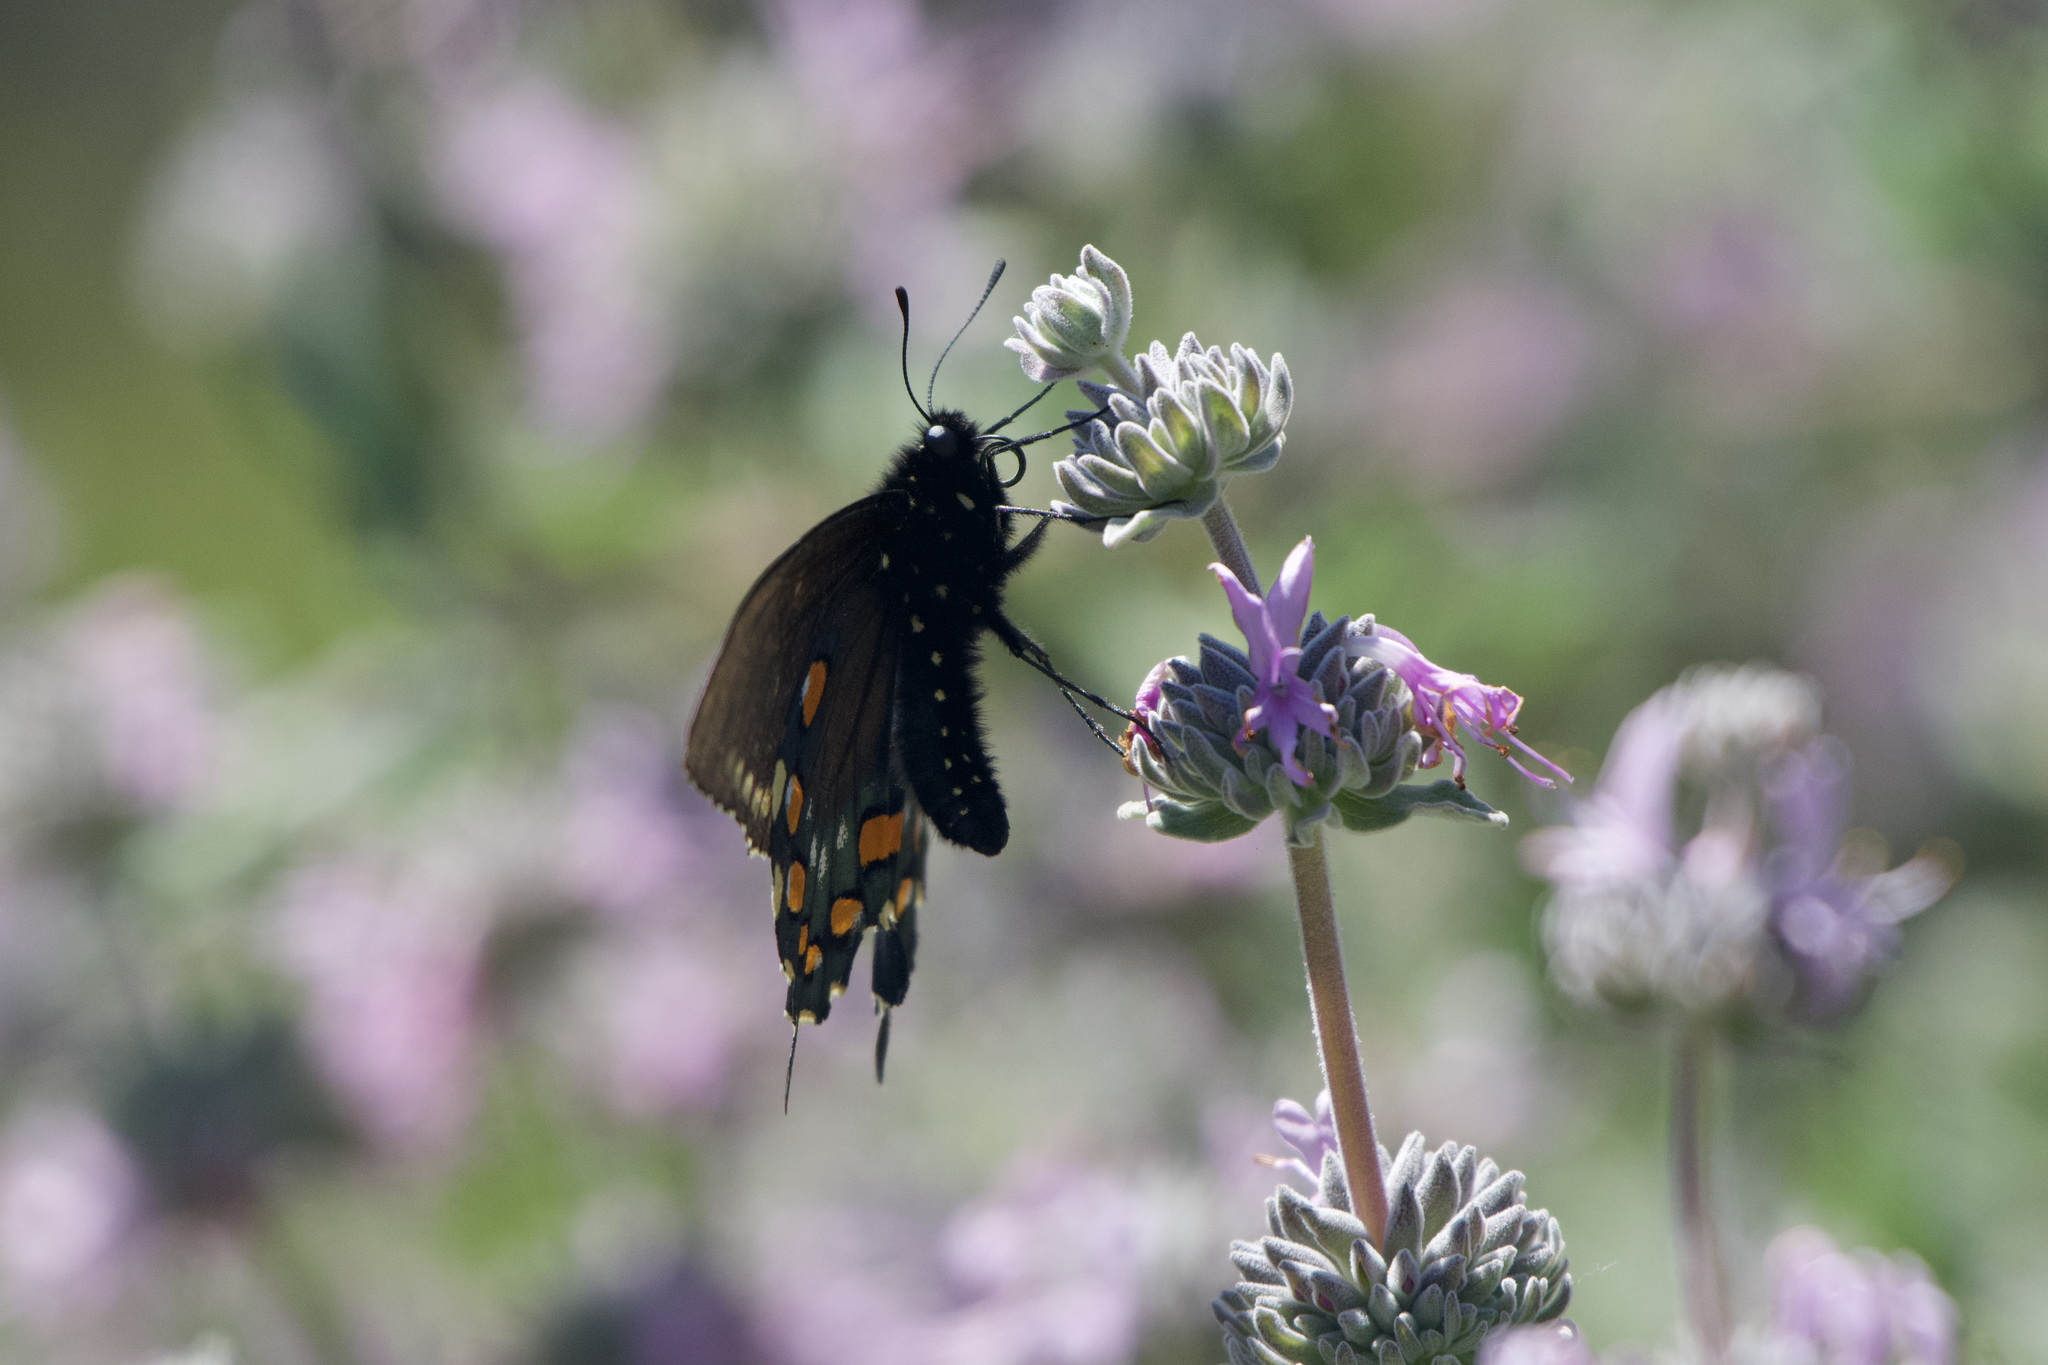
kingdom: Animalia
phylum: Arthropoda
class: Insecta
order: Lepidoptera
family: Papilionidae
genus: Battus
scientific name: Battus philenor
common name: Pipevine swallowtail
